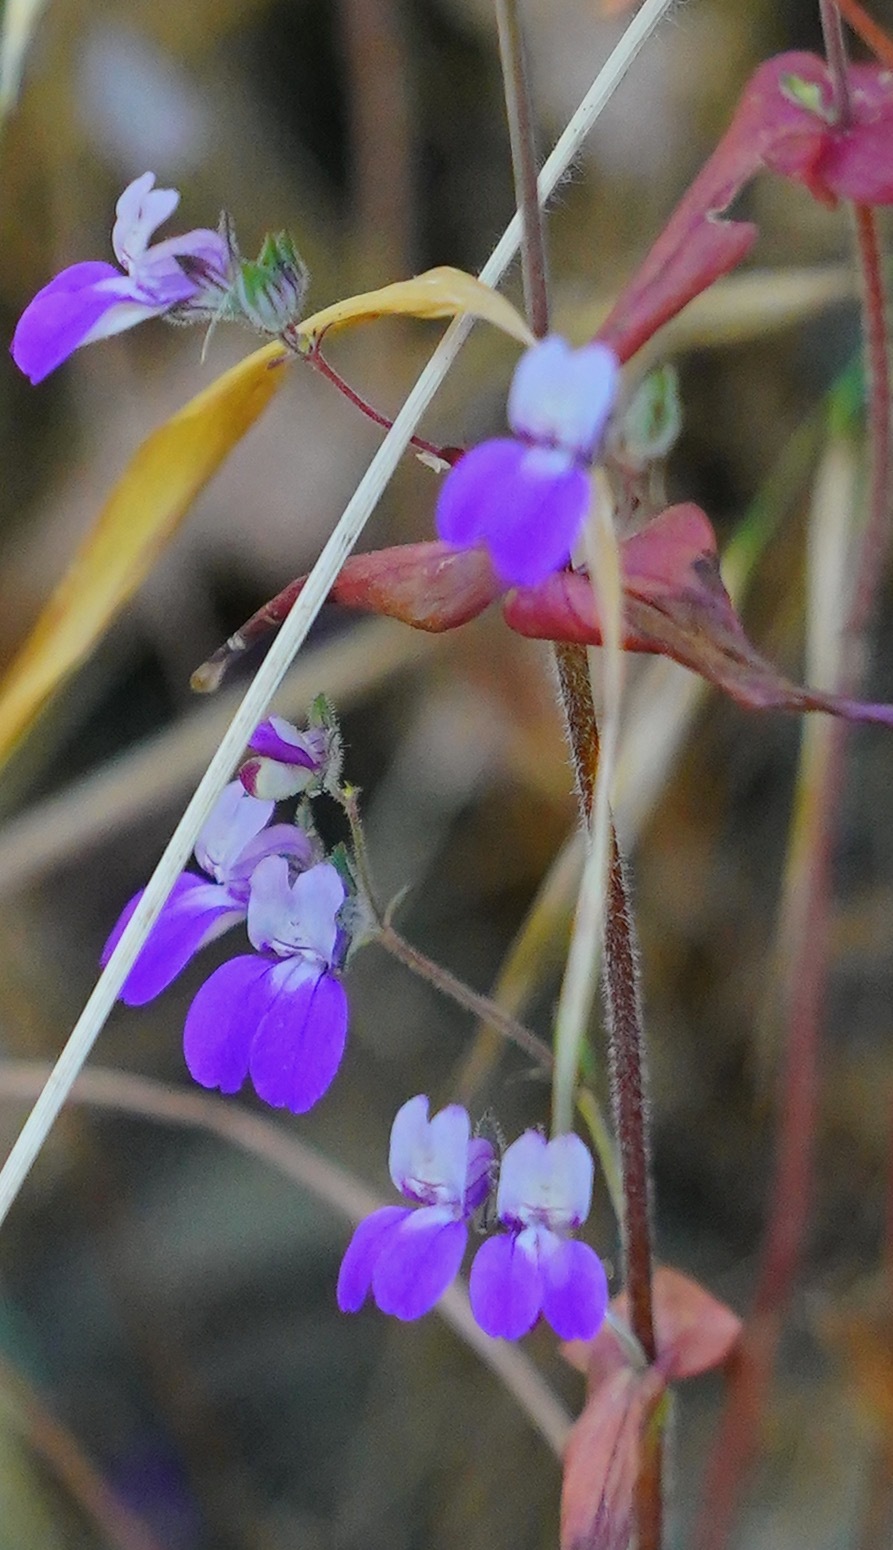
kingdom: Plantae
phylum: Tracheophyta
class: Magnoliopsida
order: Lamiales
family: Plantaginaceae
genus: Collinsia
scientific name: Collinsia heterophylla
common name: Chinese-houses
